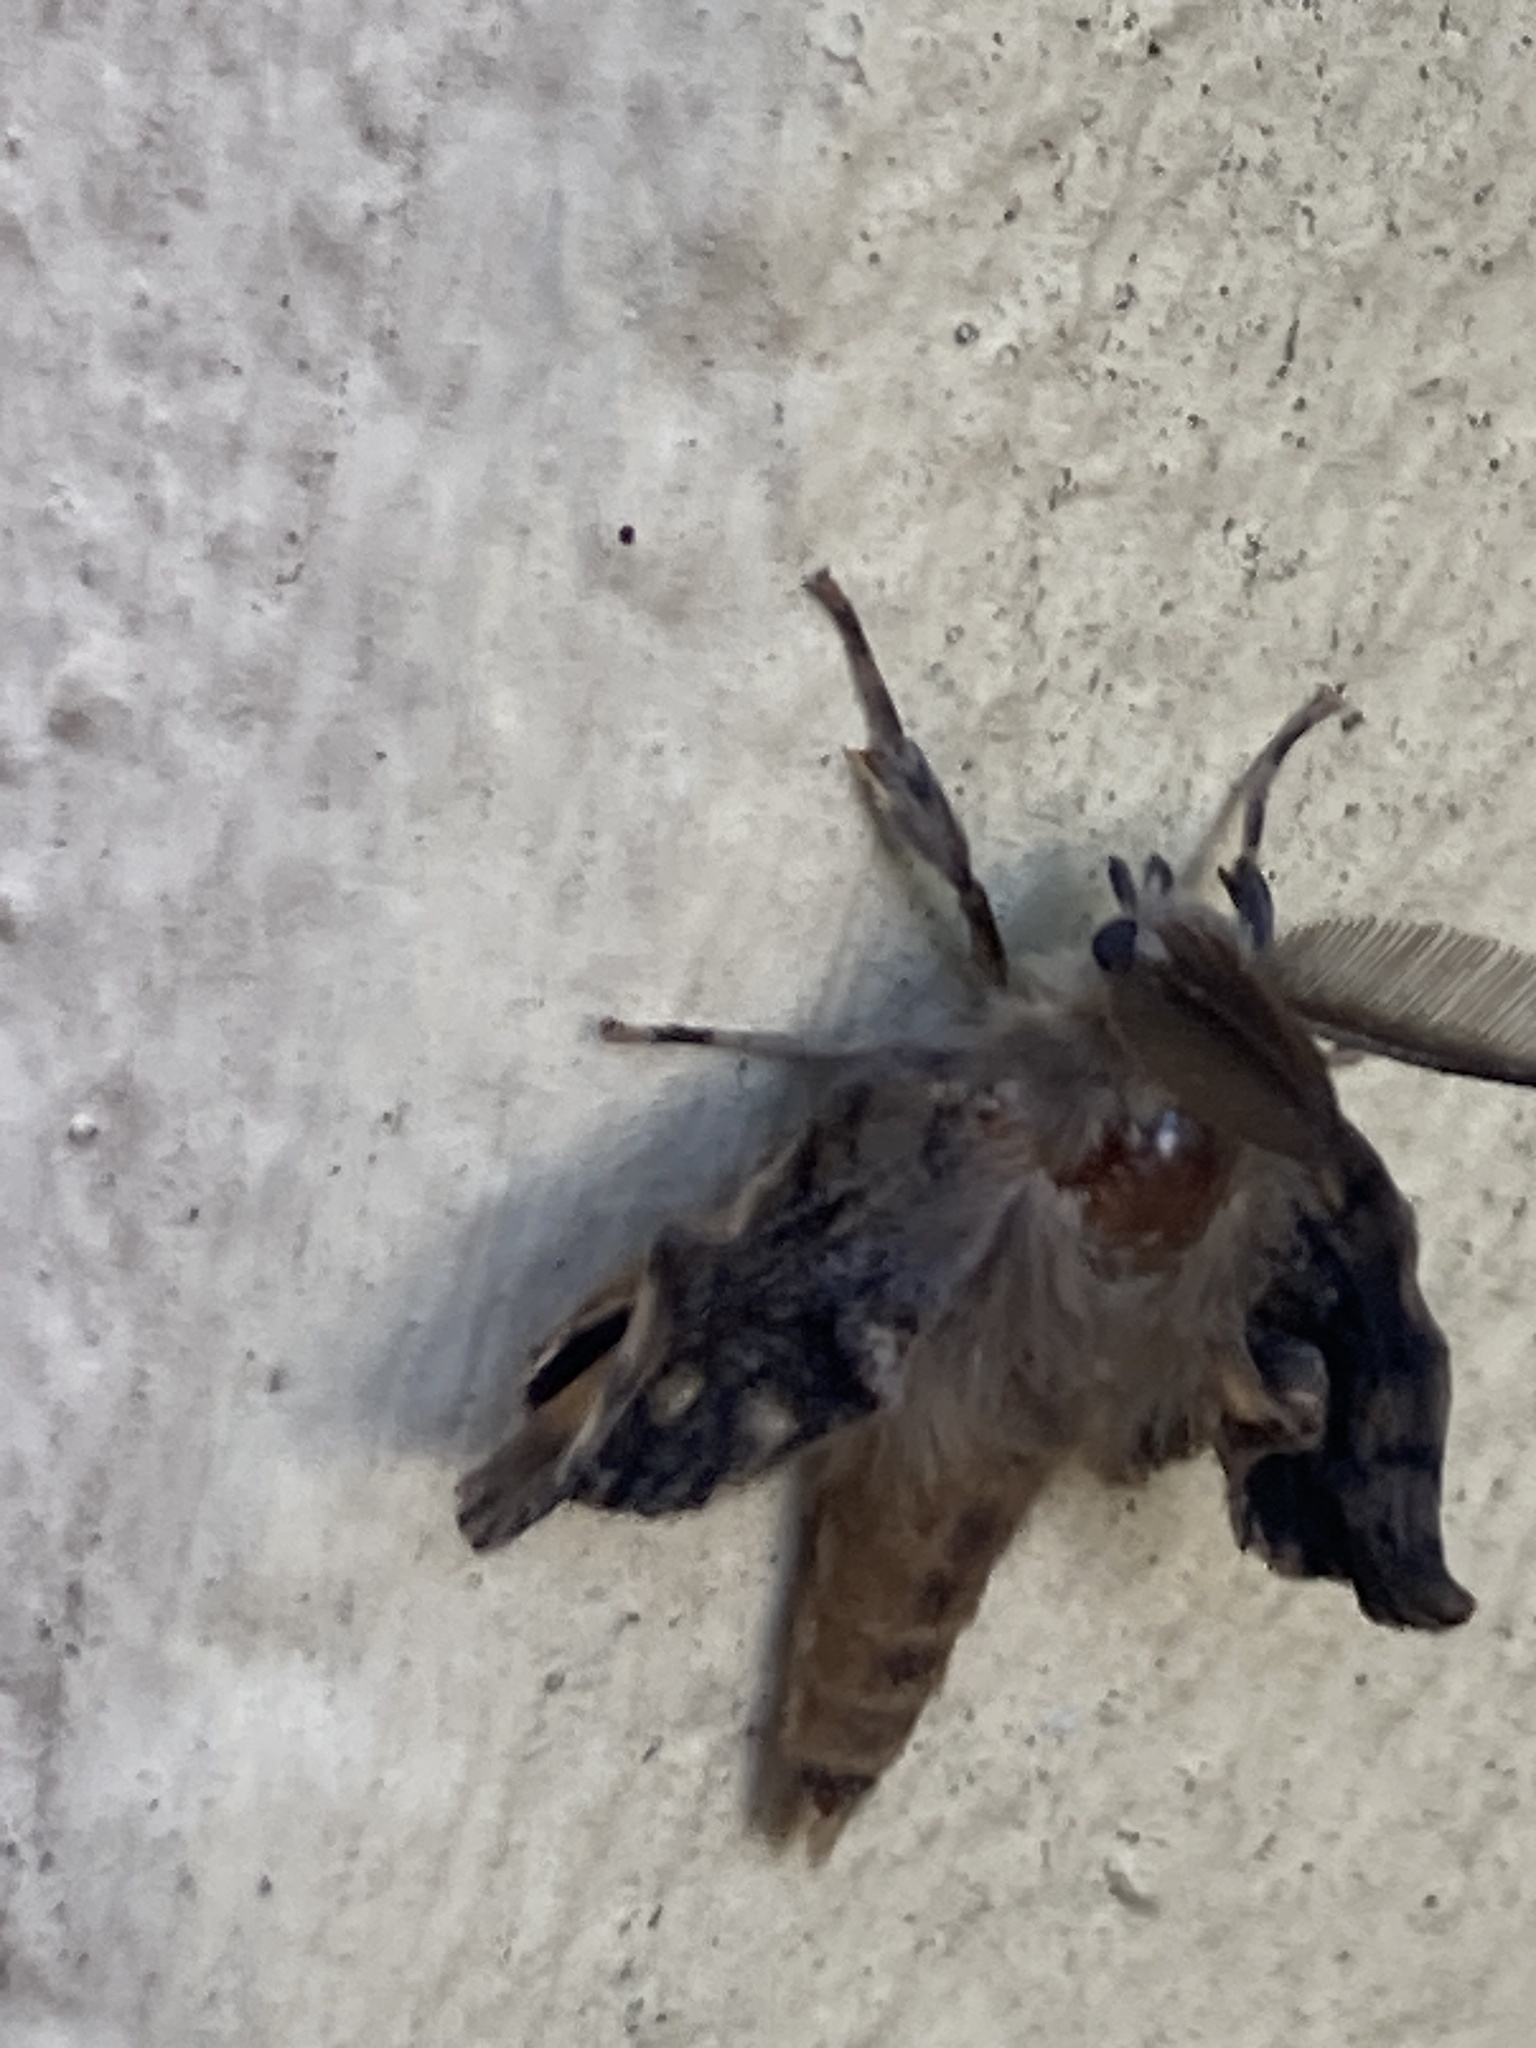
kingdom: Animalia
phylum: Arthropoda
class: Insecta
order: Lepidoptera
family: Erebidae
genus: Lymantria
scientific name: Lymantria dispar
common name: Gypsy moth
